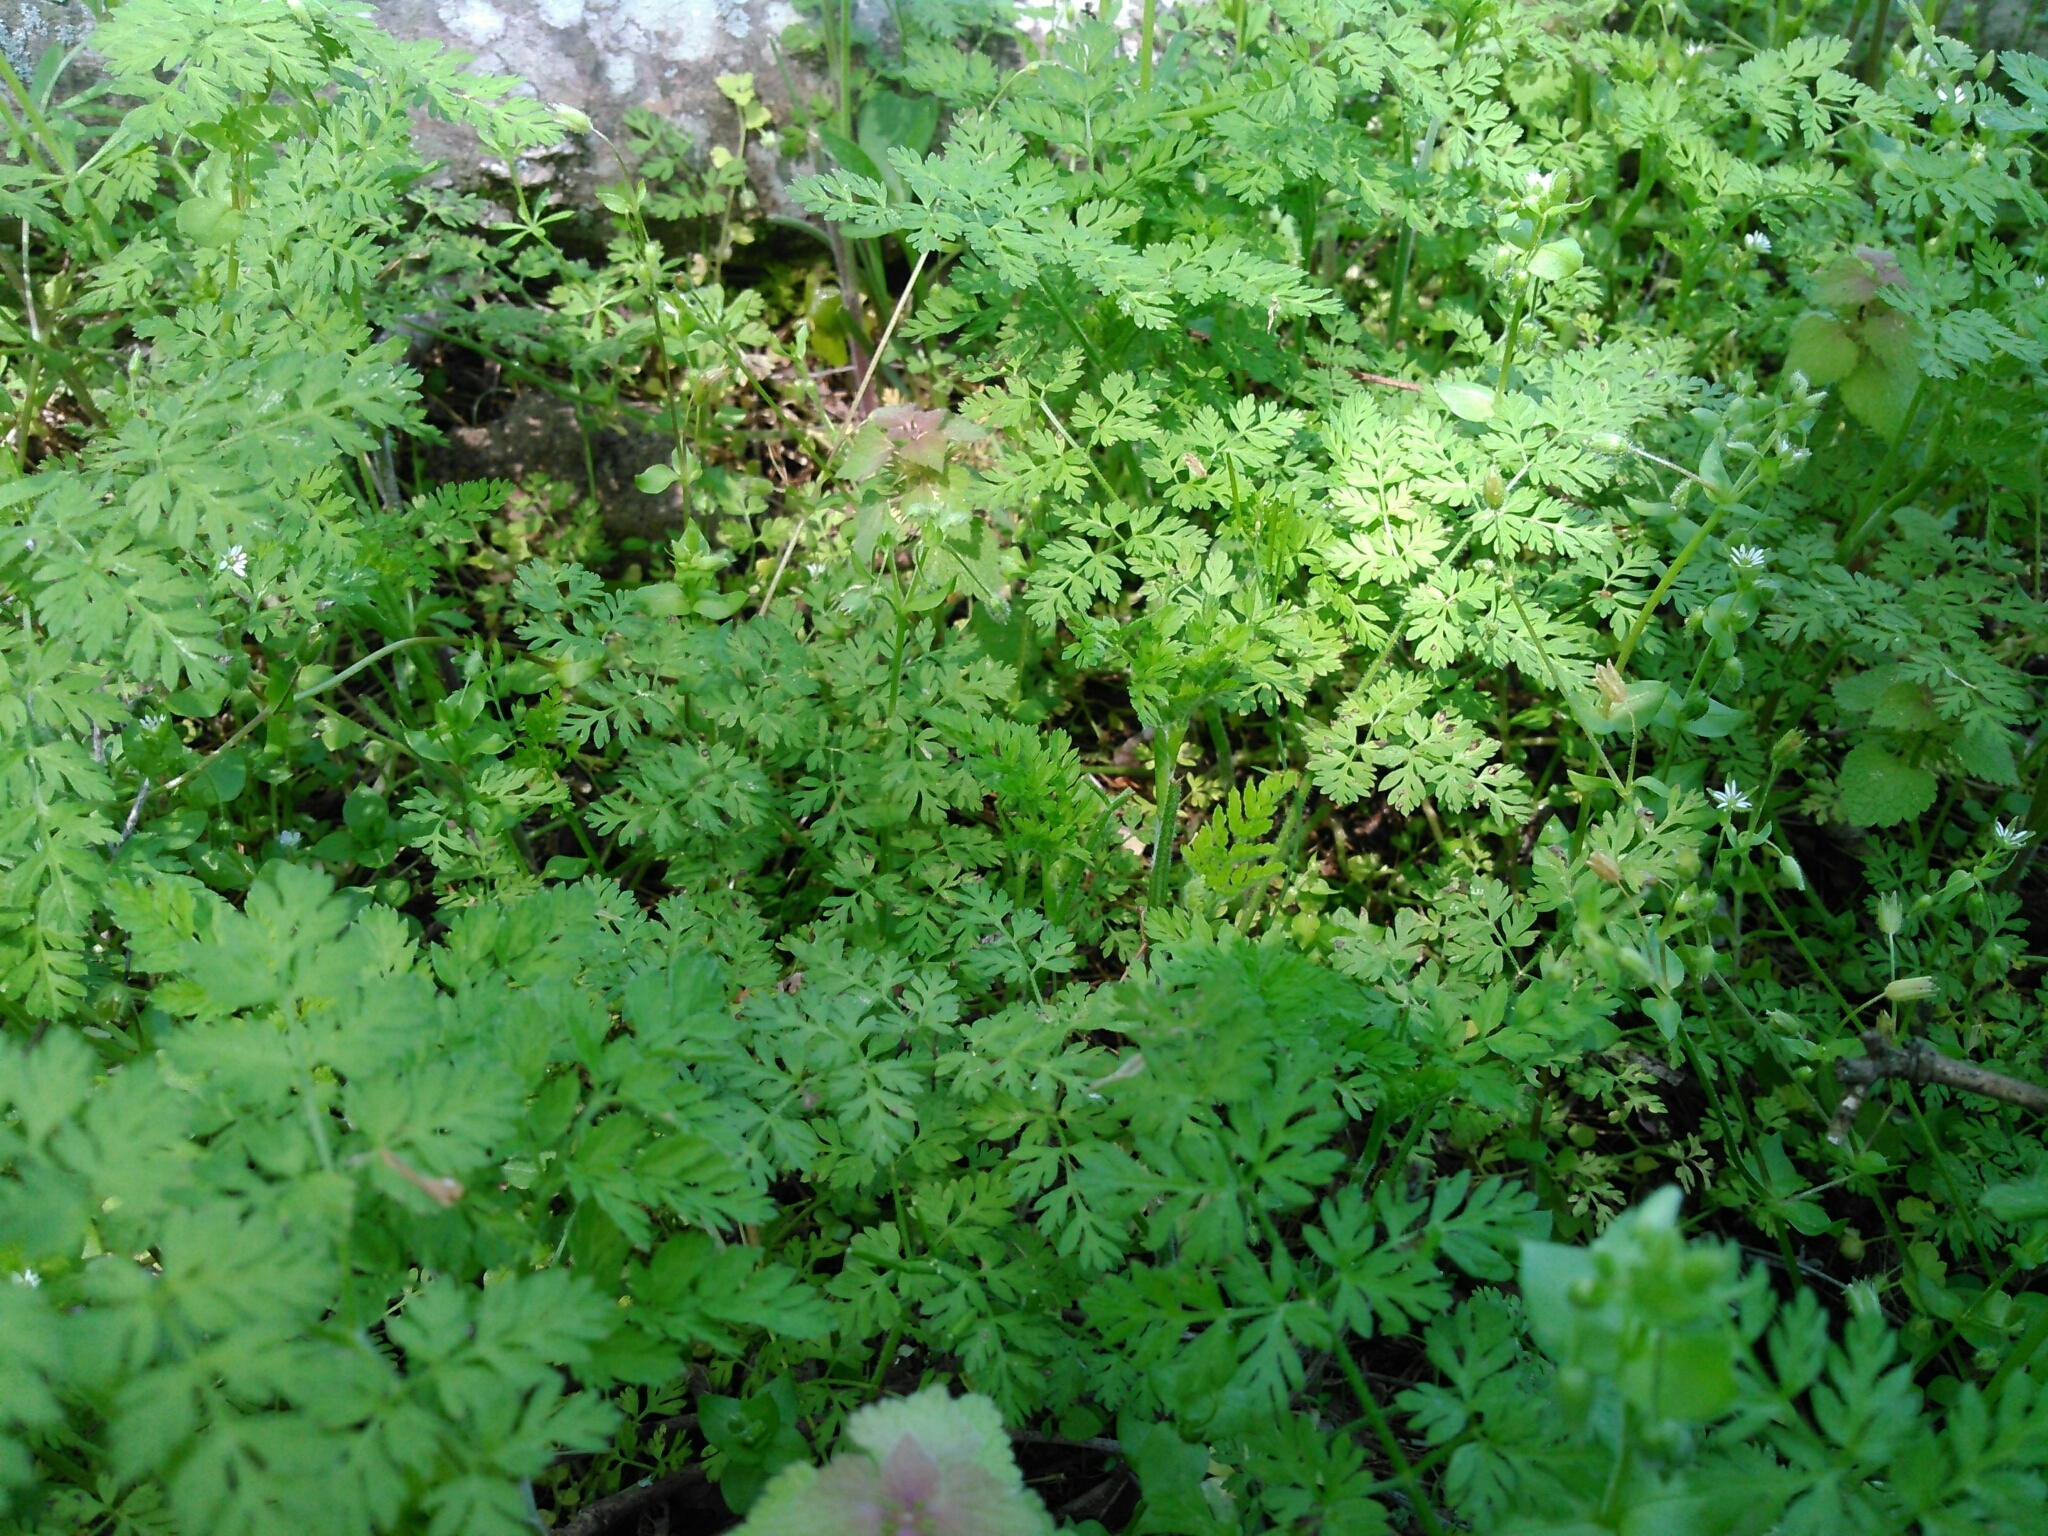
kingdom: Plantae
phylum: Tracheophyta
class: Magnoliopsida
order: Apiales
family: Apiaceae
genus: Chaerophyllum
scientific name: Chaerophyllum tainturieri
